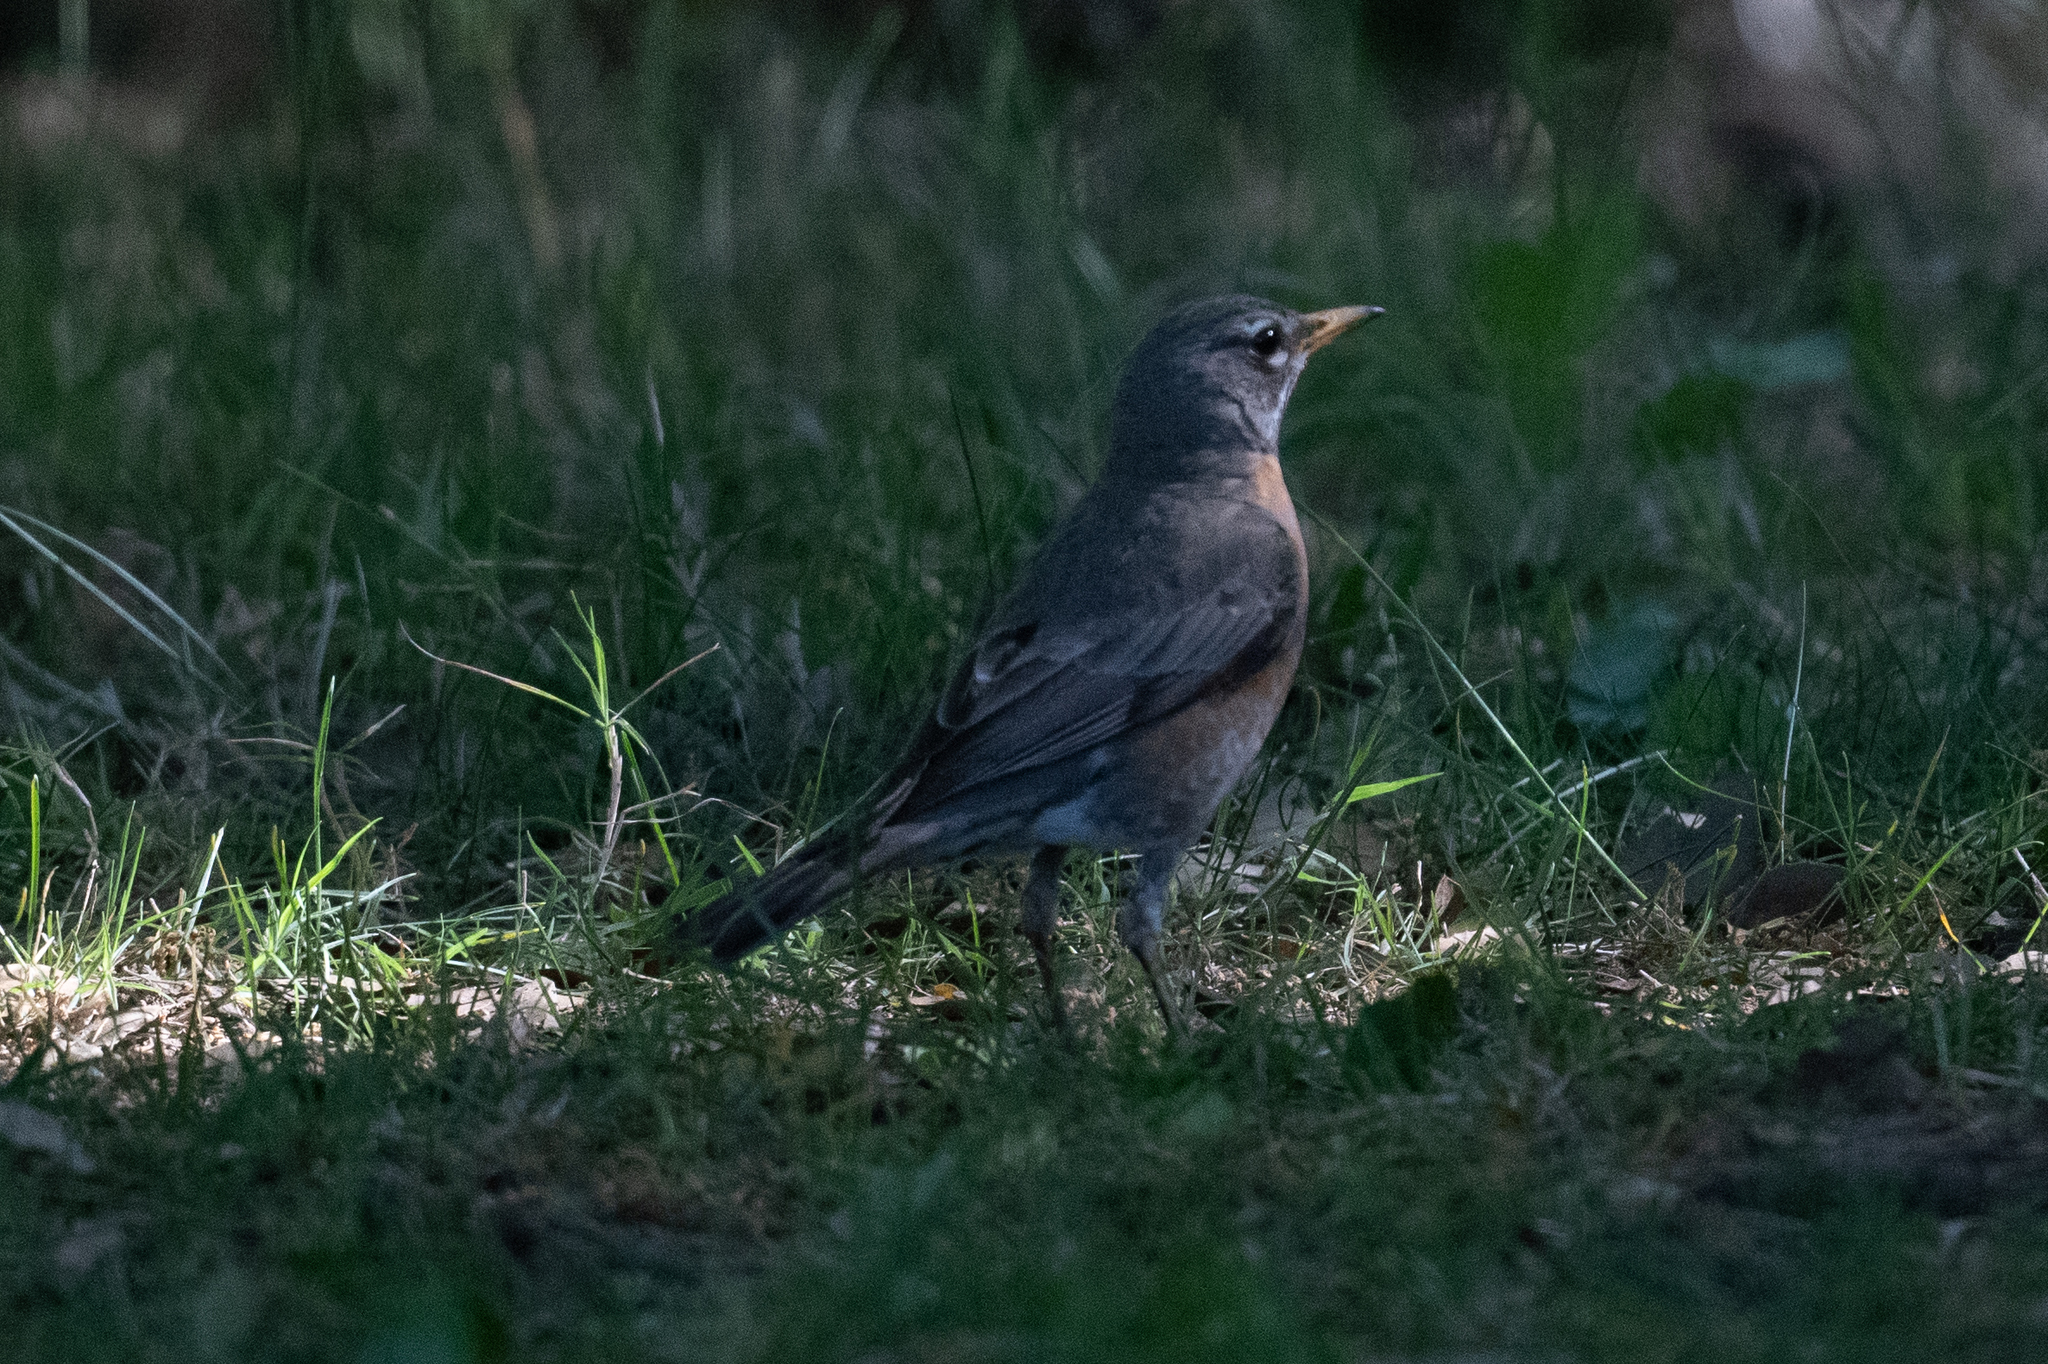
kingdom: Animalia
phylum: Chordata
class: Aves
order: Passeriformes
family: Turdidae
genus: Turdus
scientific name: Turdus migratorius
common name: American robin
